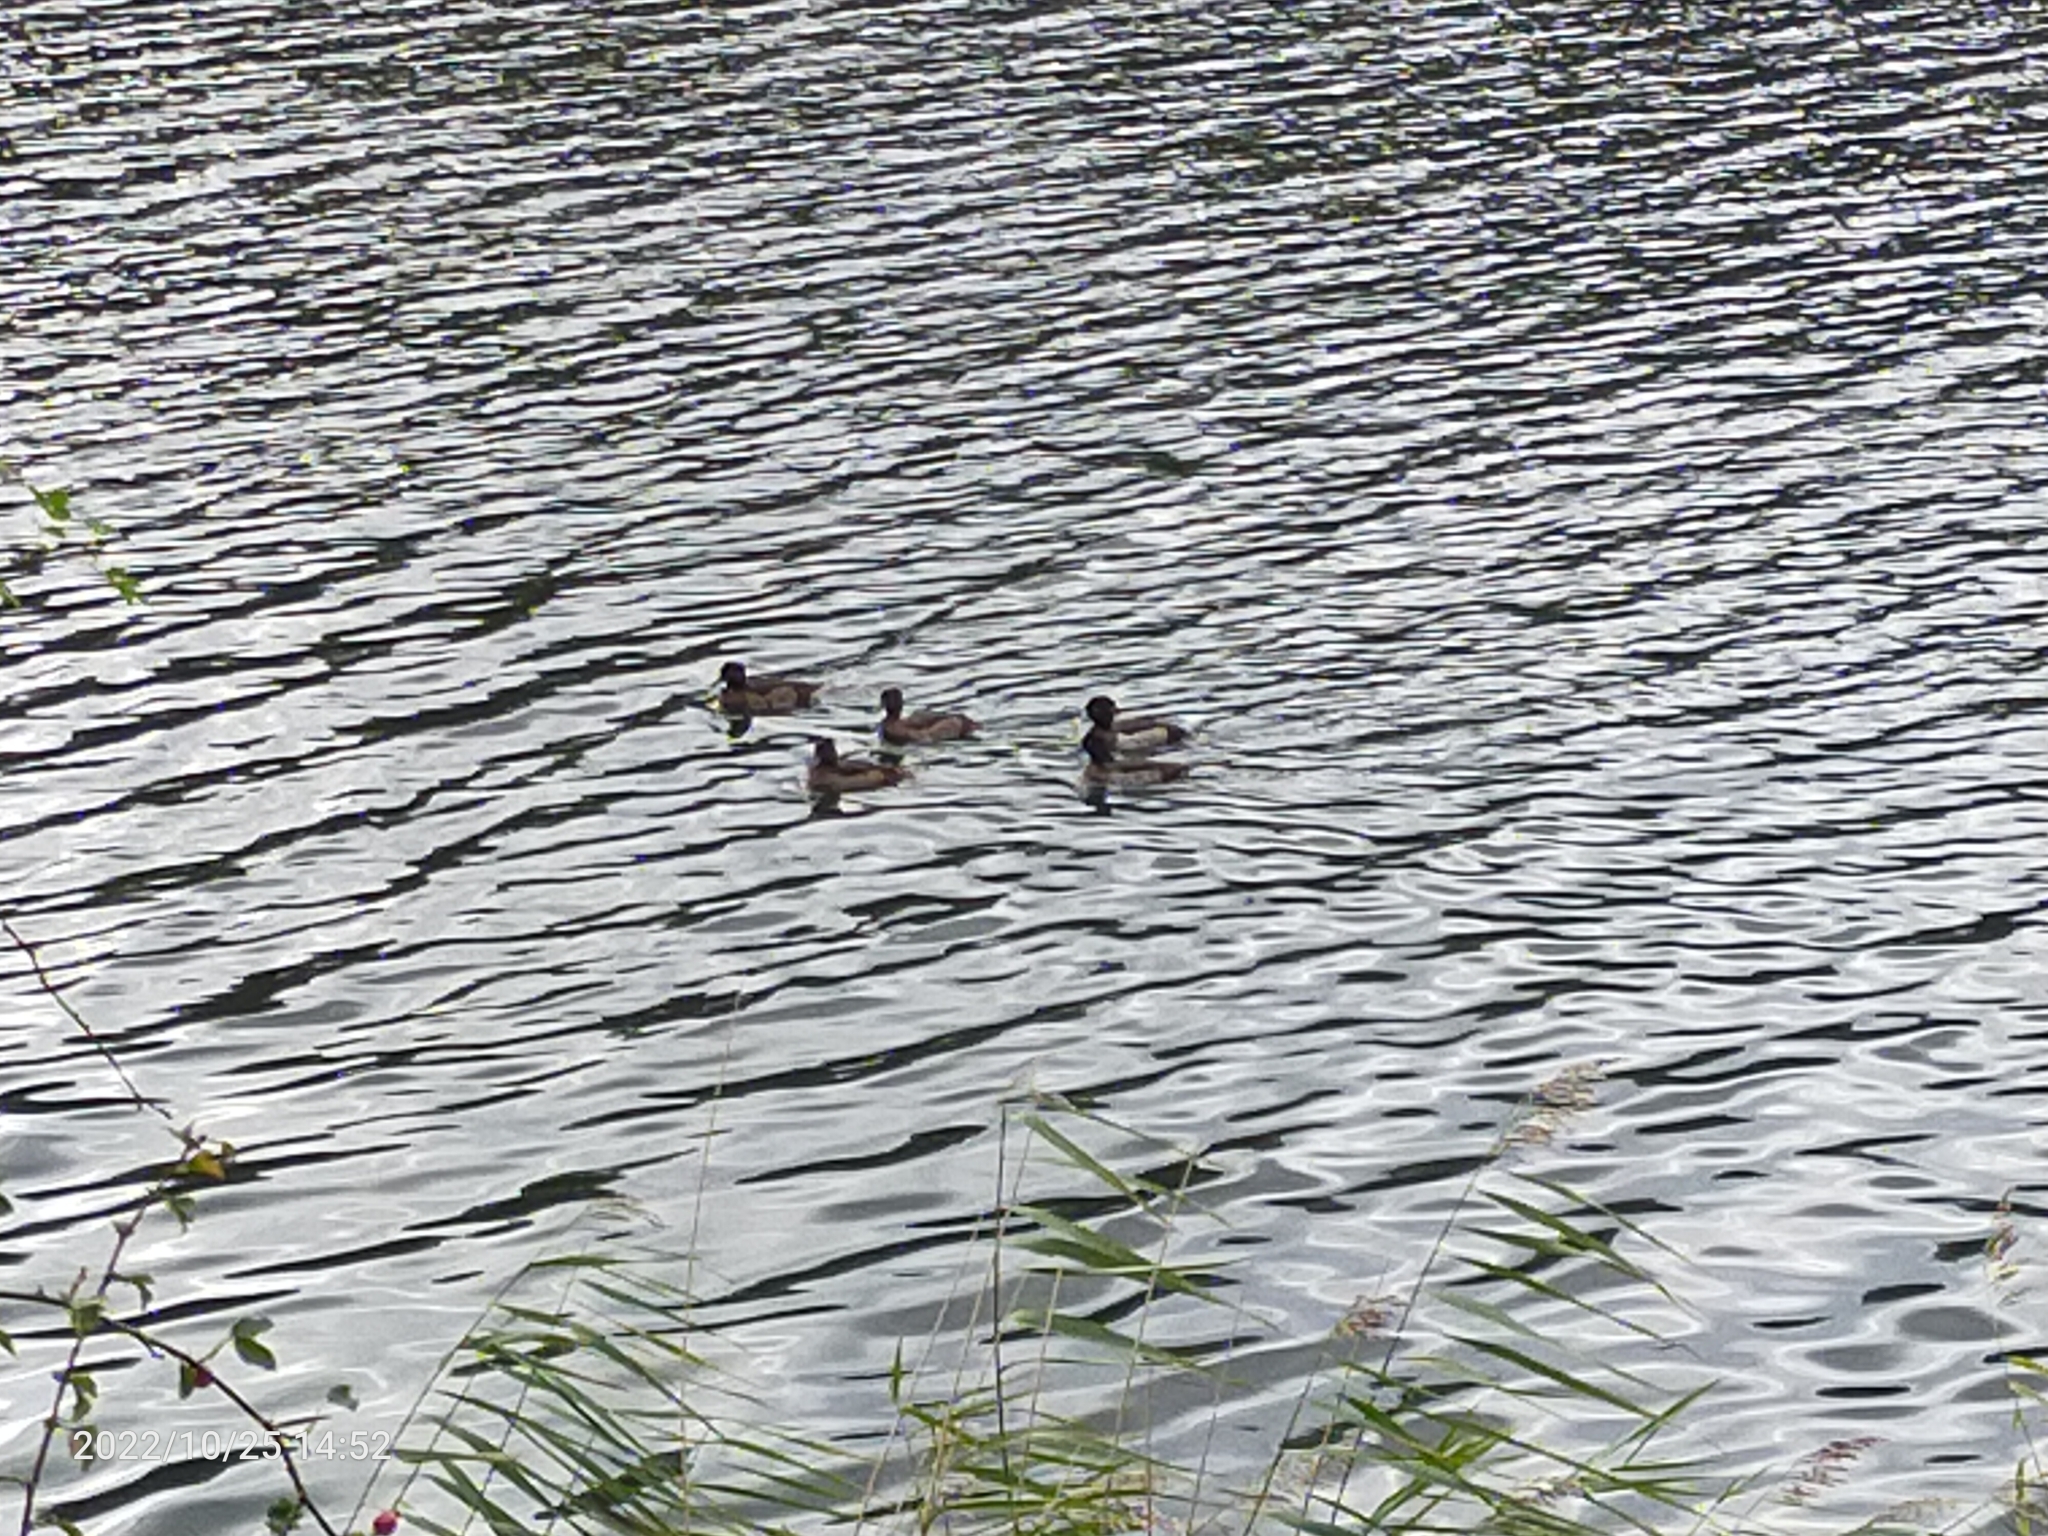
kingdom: Animalia
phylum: Chordata
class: Aves
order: Anseriformes
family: Anatidae
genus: Aythya
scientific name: Aythya fuligula
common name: Tufted duck
